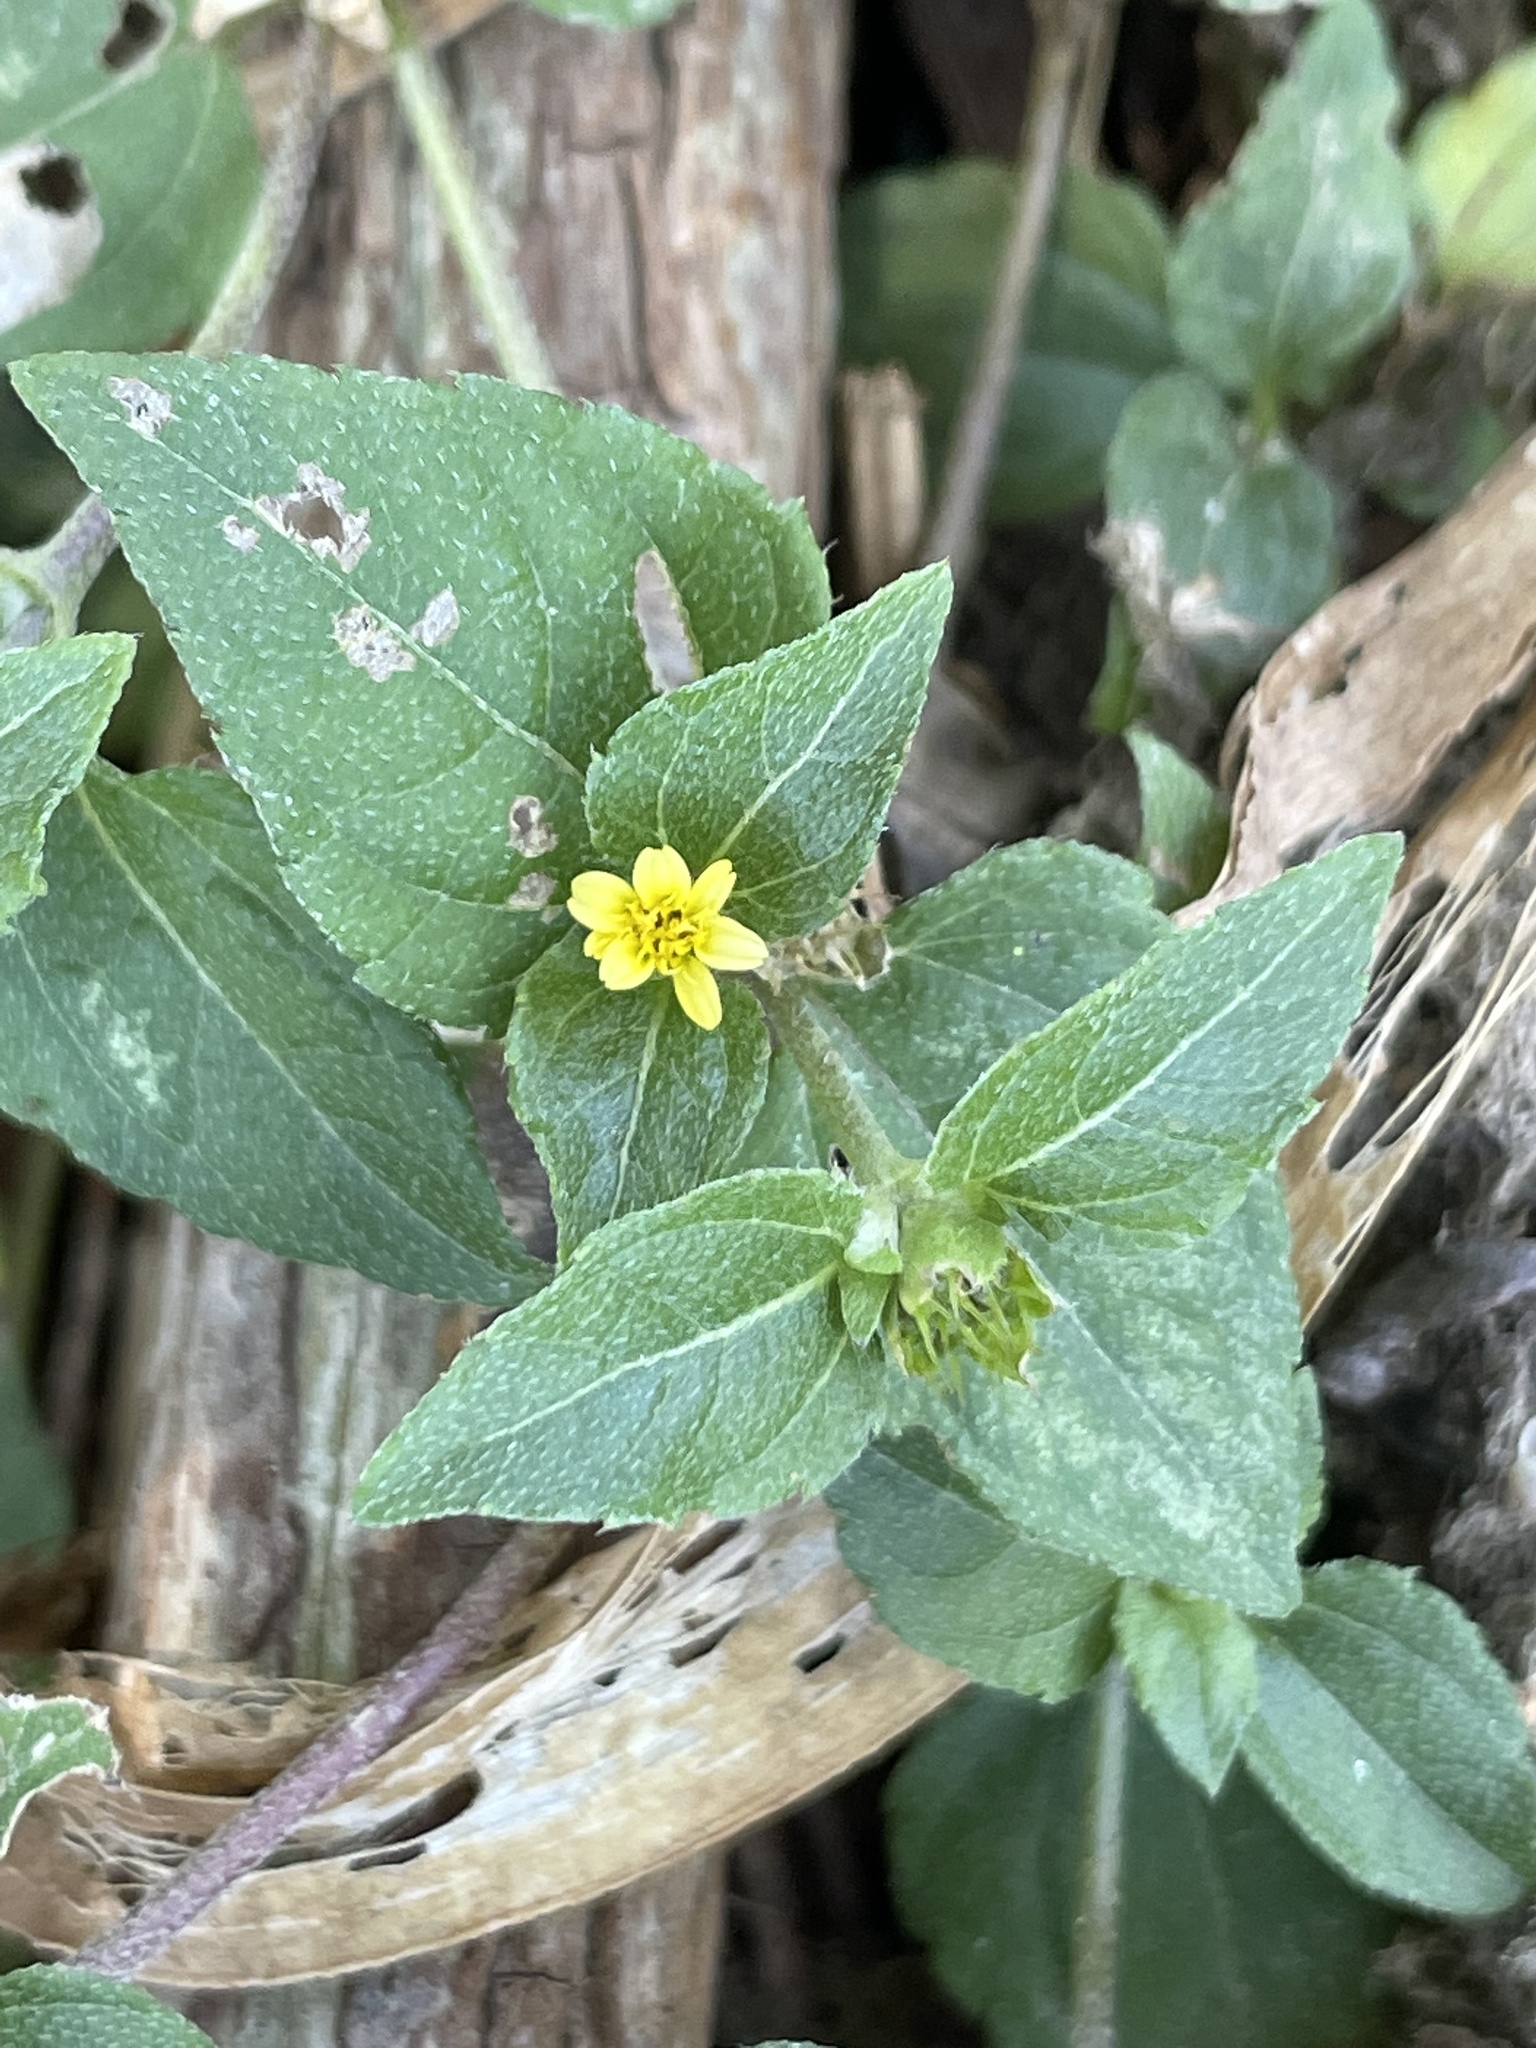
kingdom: Plantae
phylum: Tracheophyta
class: Magnoliopsida
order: Asterales
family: Asteraceae
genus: Calyptocarpus
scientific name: Calyptocarpus vialis
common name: Straggler daisy
